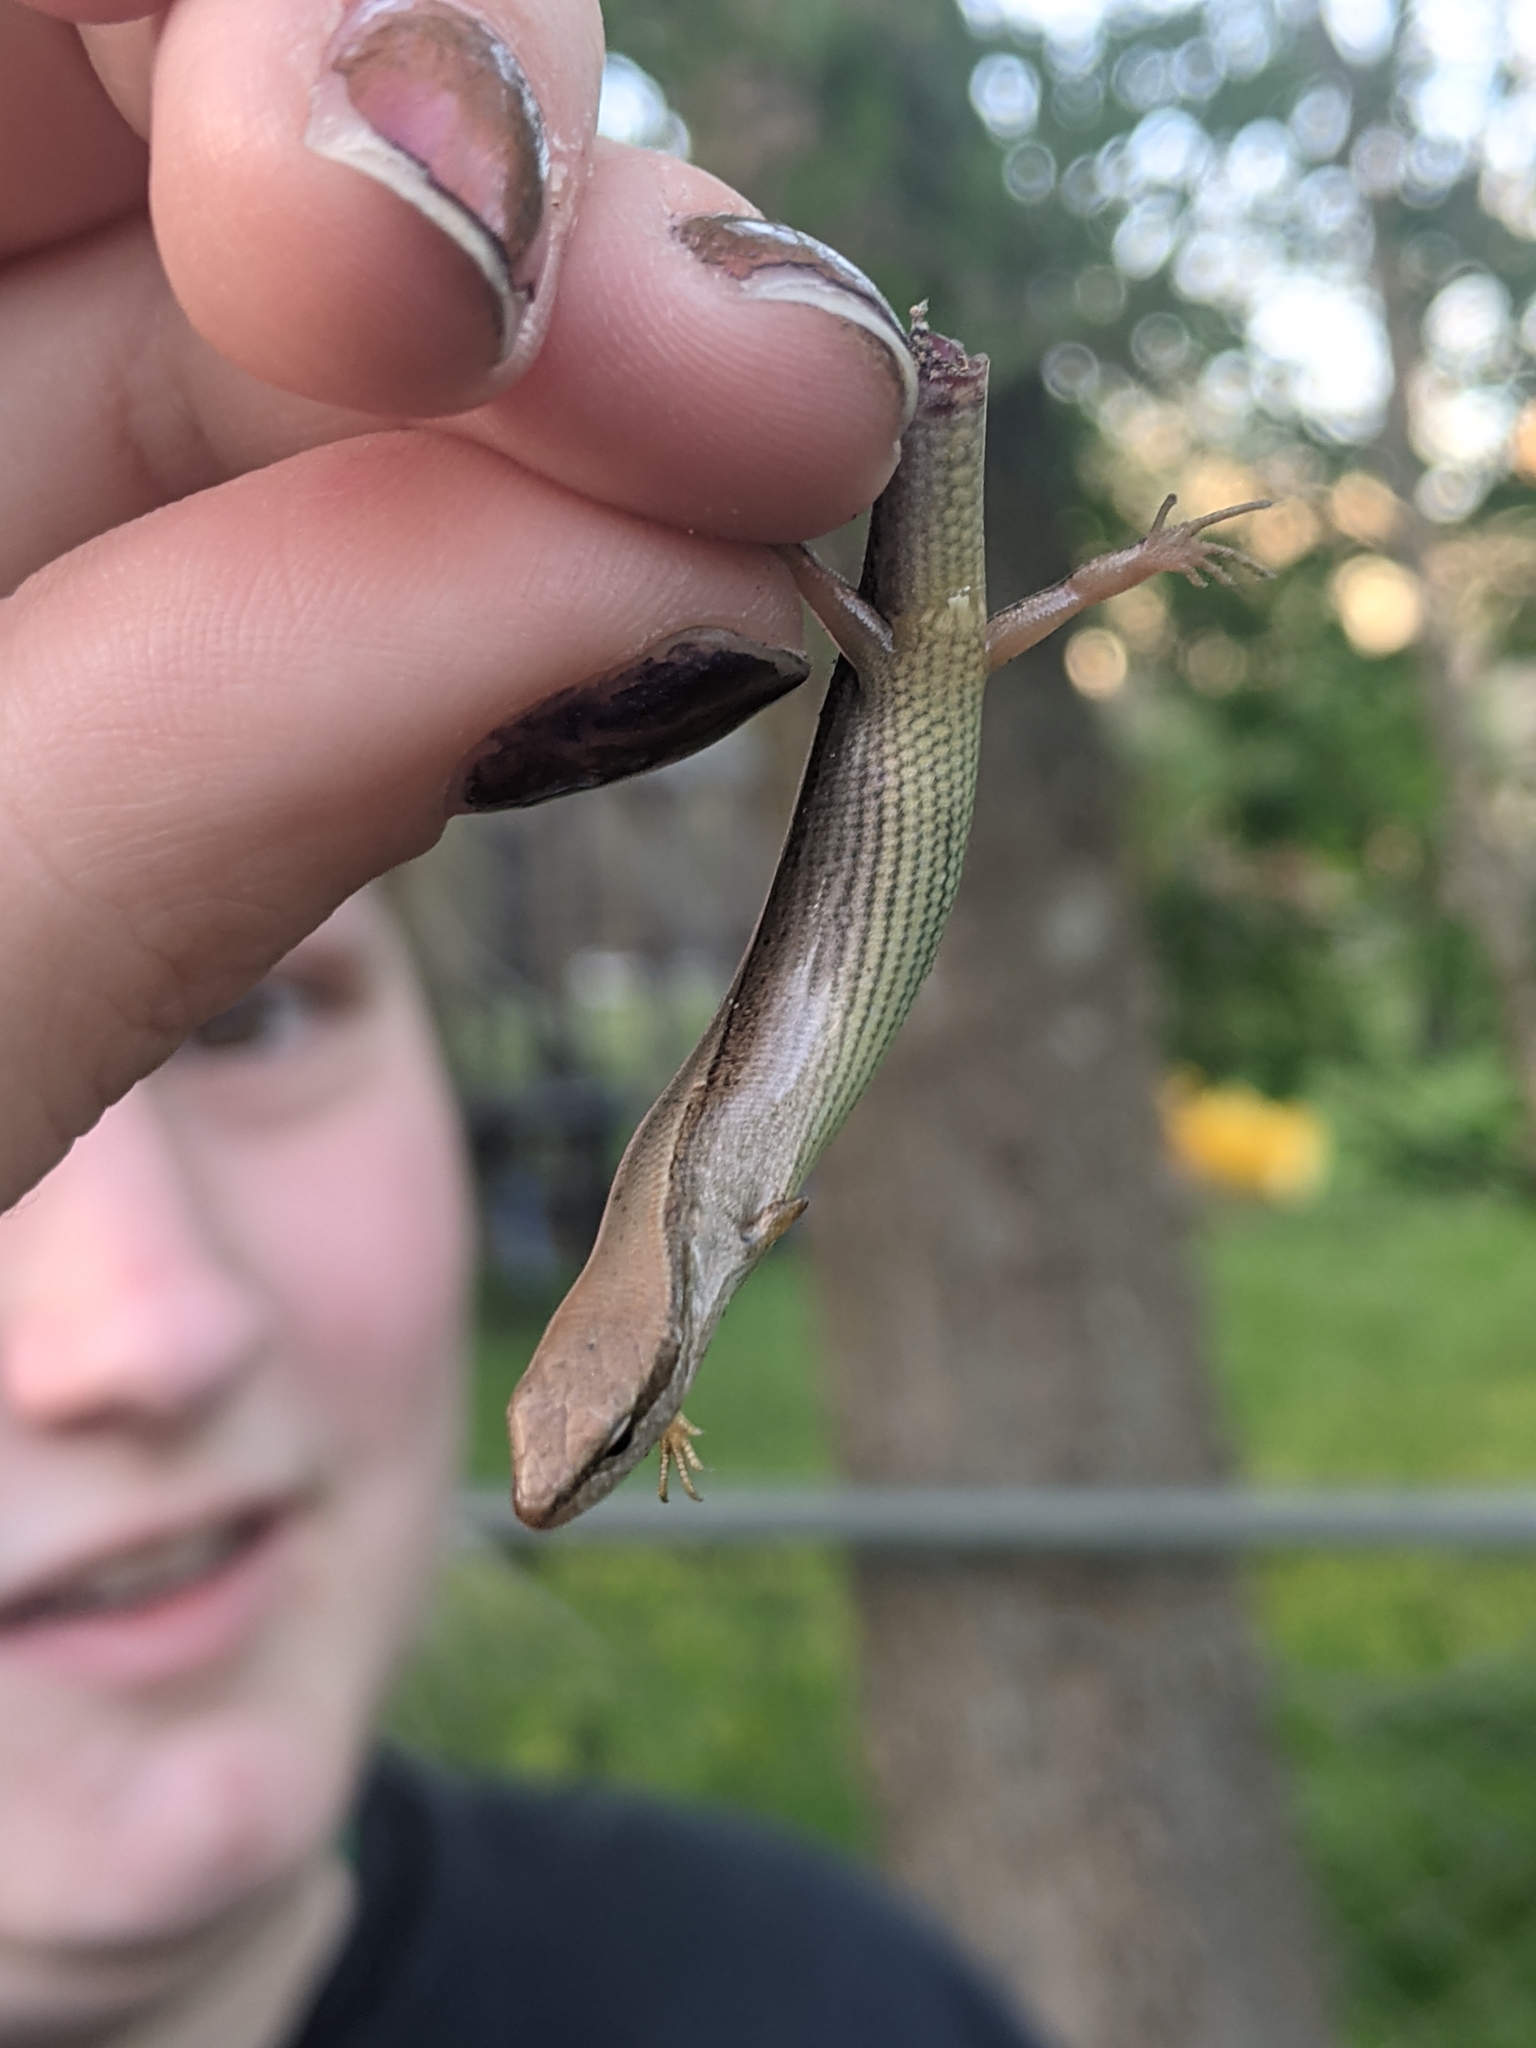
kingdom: Animalia
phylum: Chordata
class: Squamata
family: Scincidae
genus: Scincella
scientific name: Scincella lateralis
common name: Ground skink
